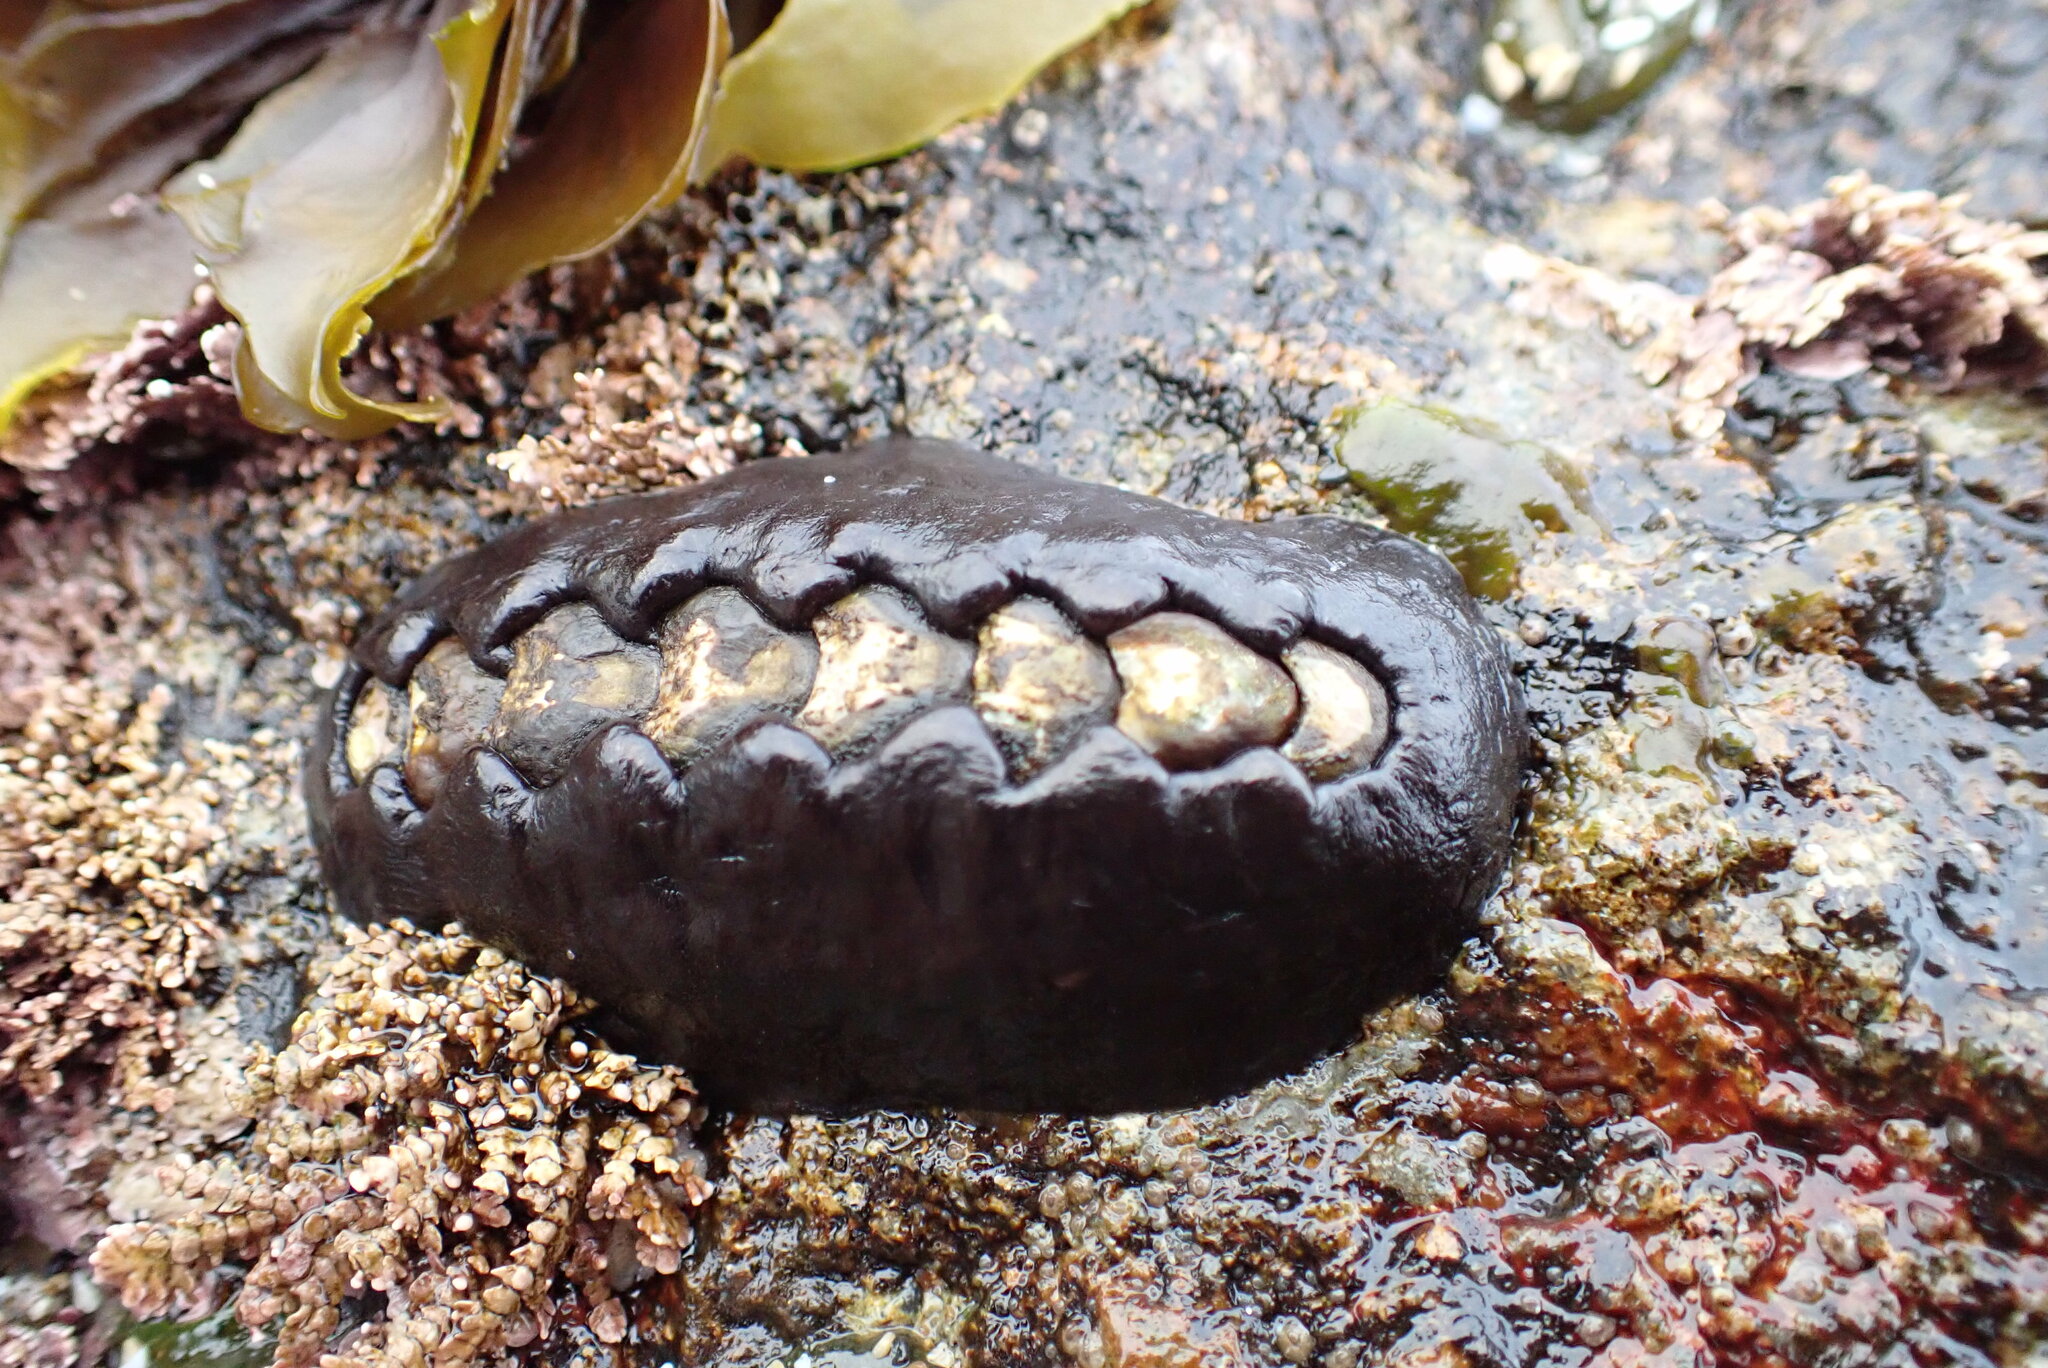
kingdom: Animalia
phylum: Mollusca
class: Polyplacophora
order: Chitonida
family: Mopaliidae
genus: Katharina
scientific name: Katharina tunicata
